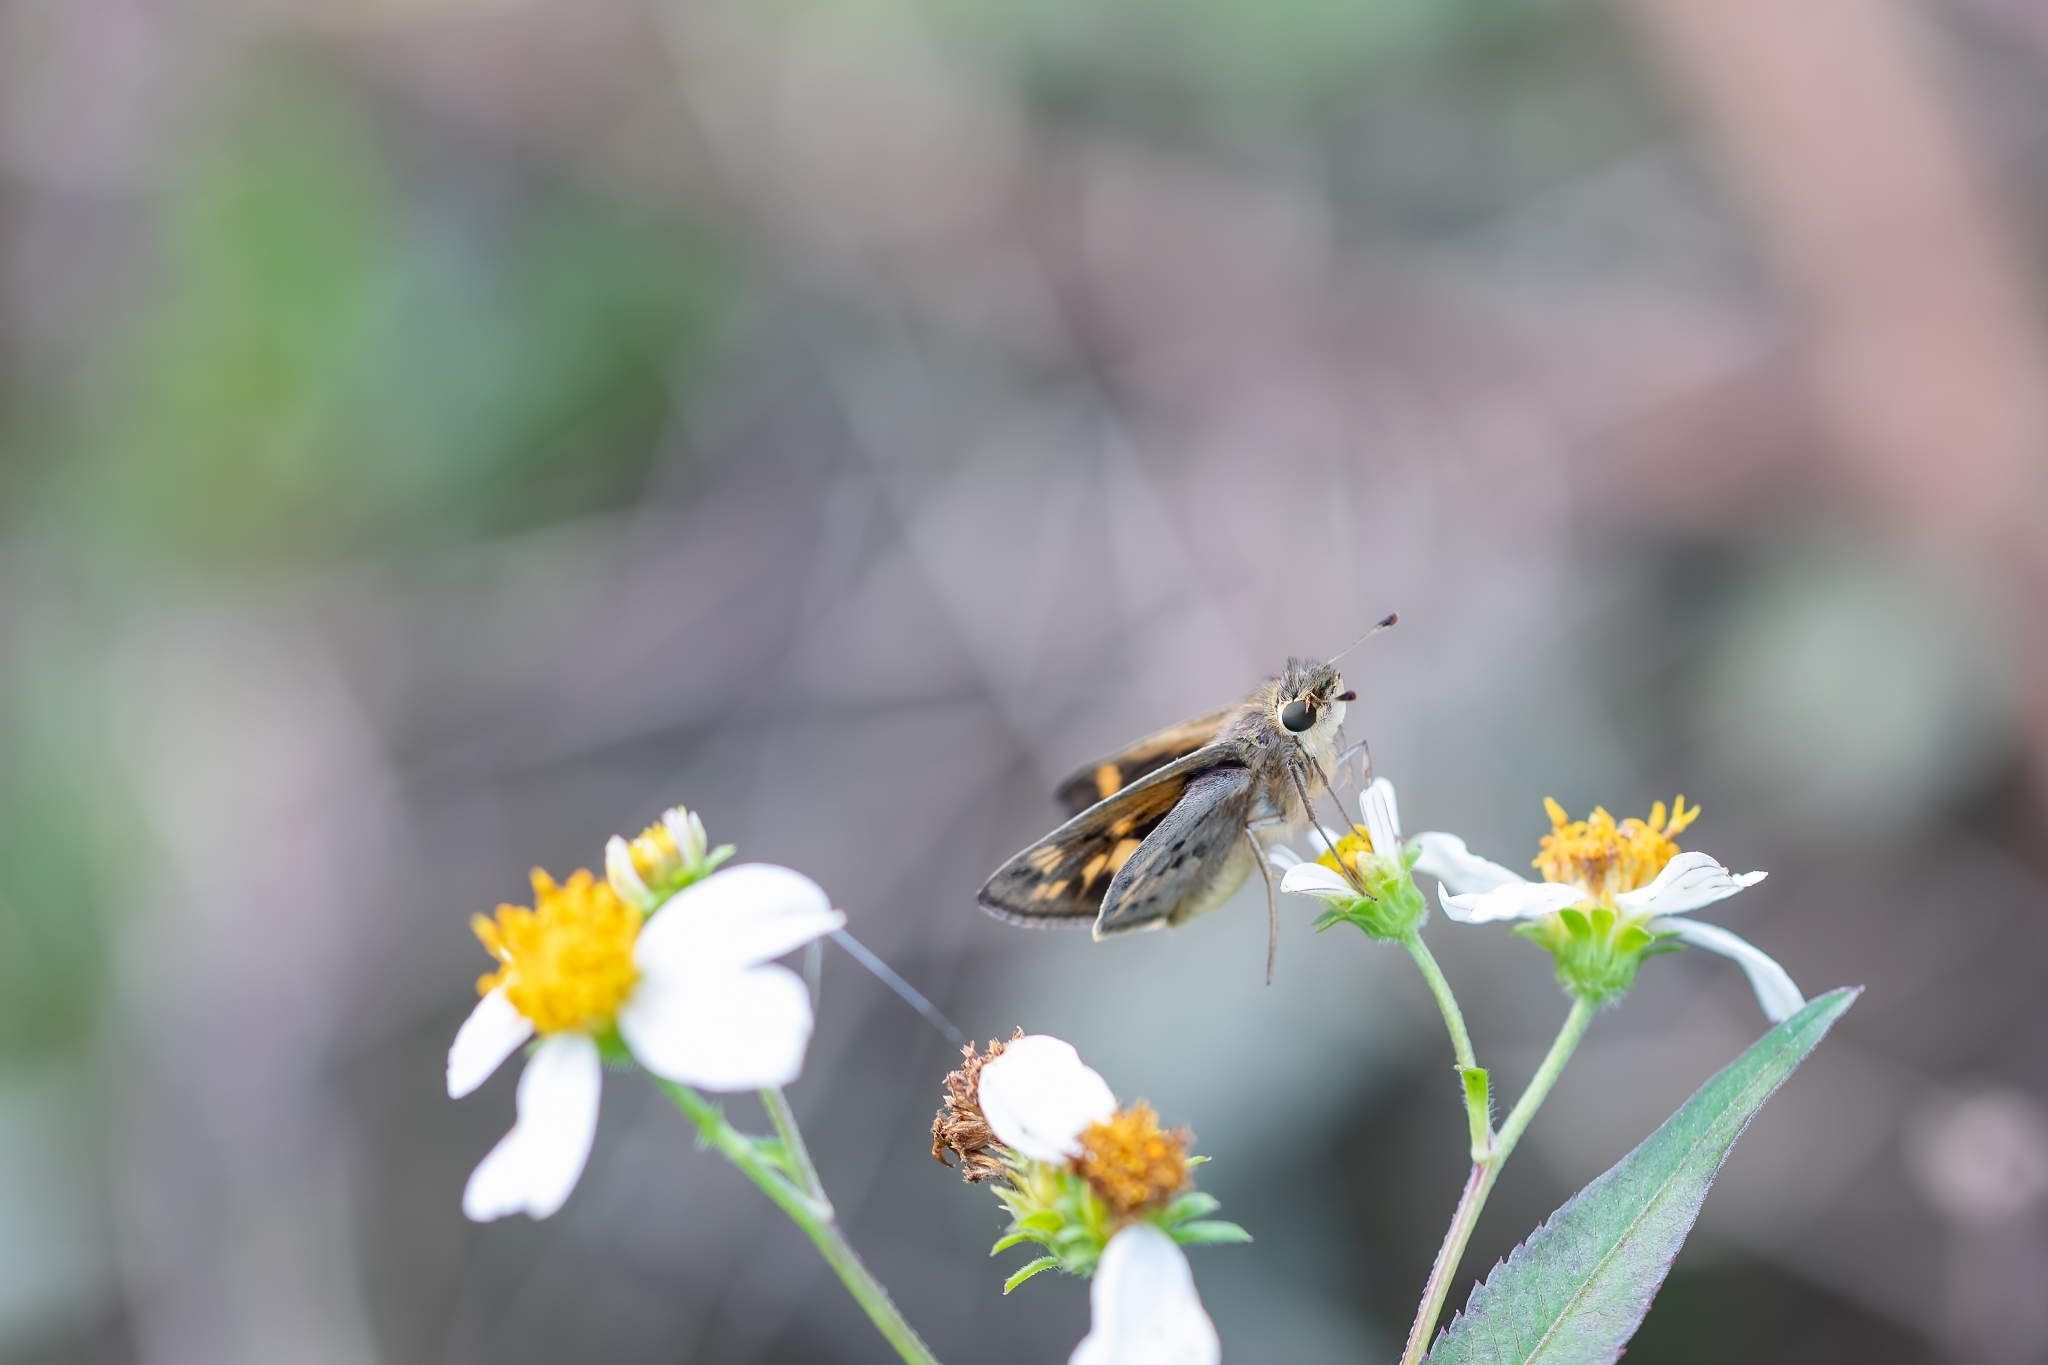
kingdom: Animalia
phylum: Arthropoda
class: Insecta
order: Lepidoptera
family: Hesperiidae
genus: Hylephila
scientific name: Hylephila phyleus
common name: Fiery skipper
